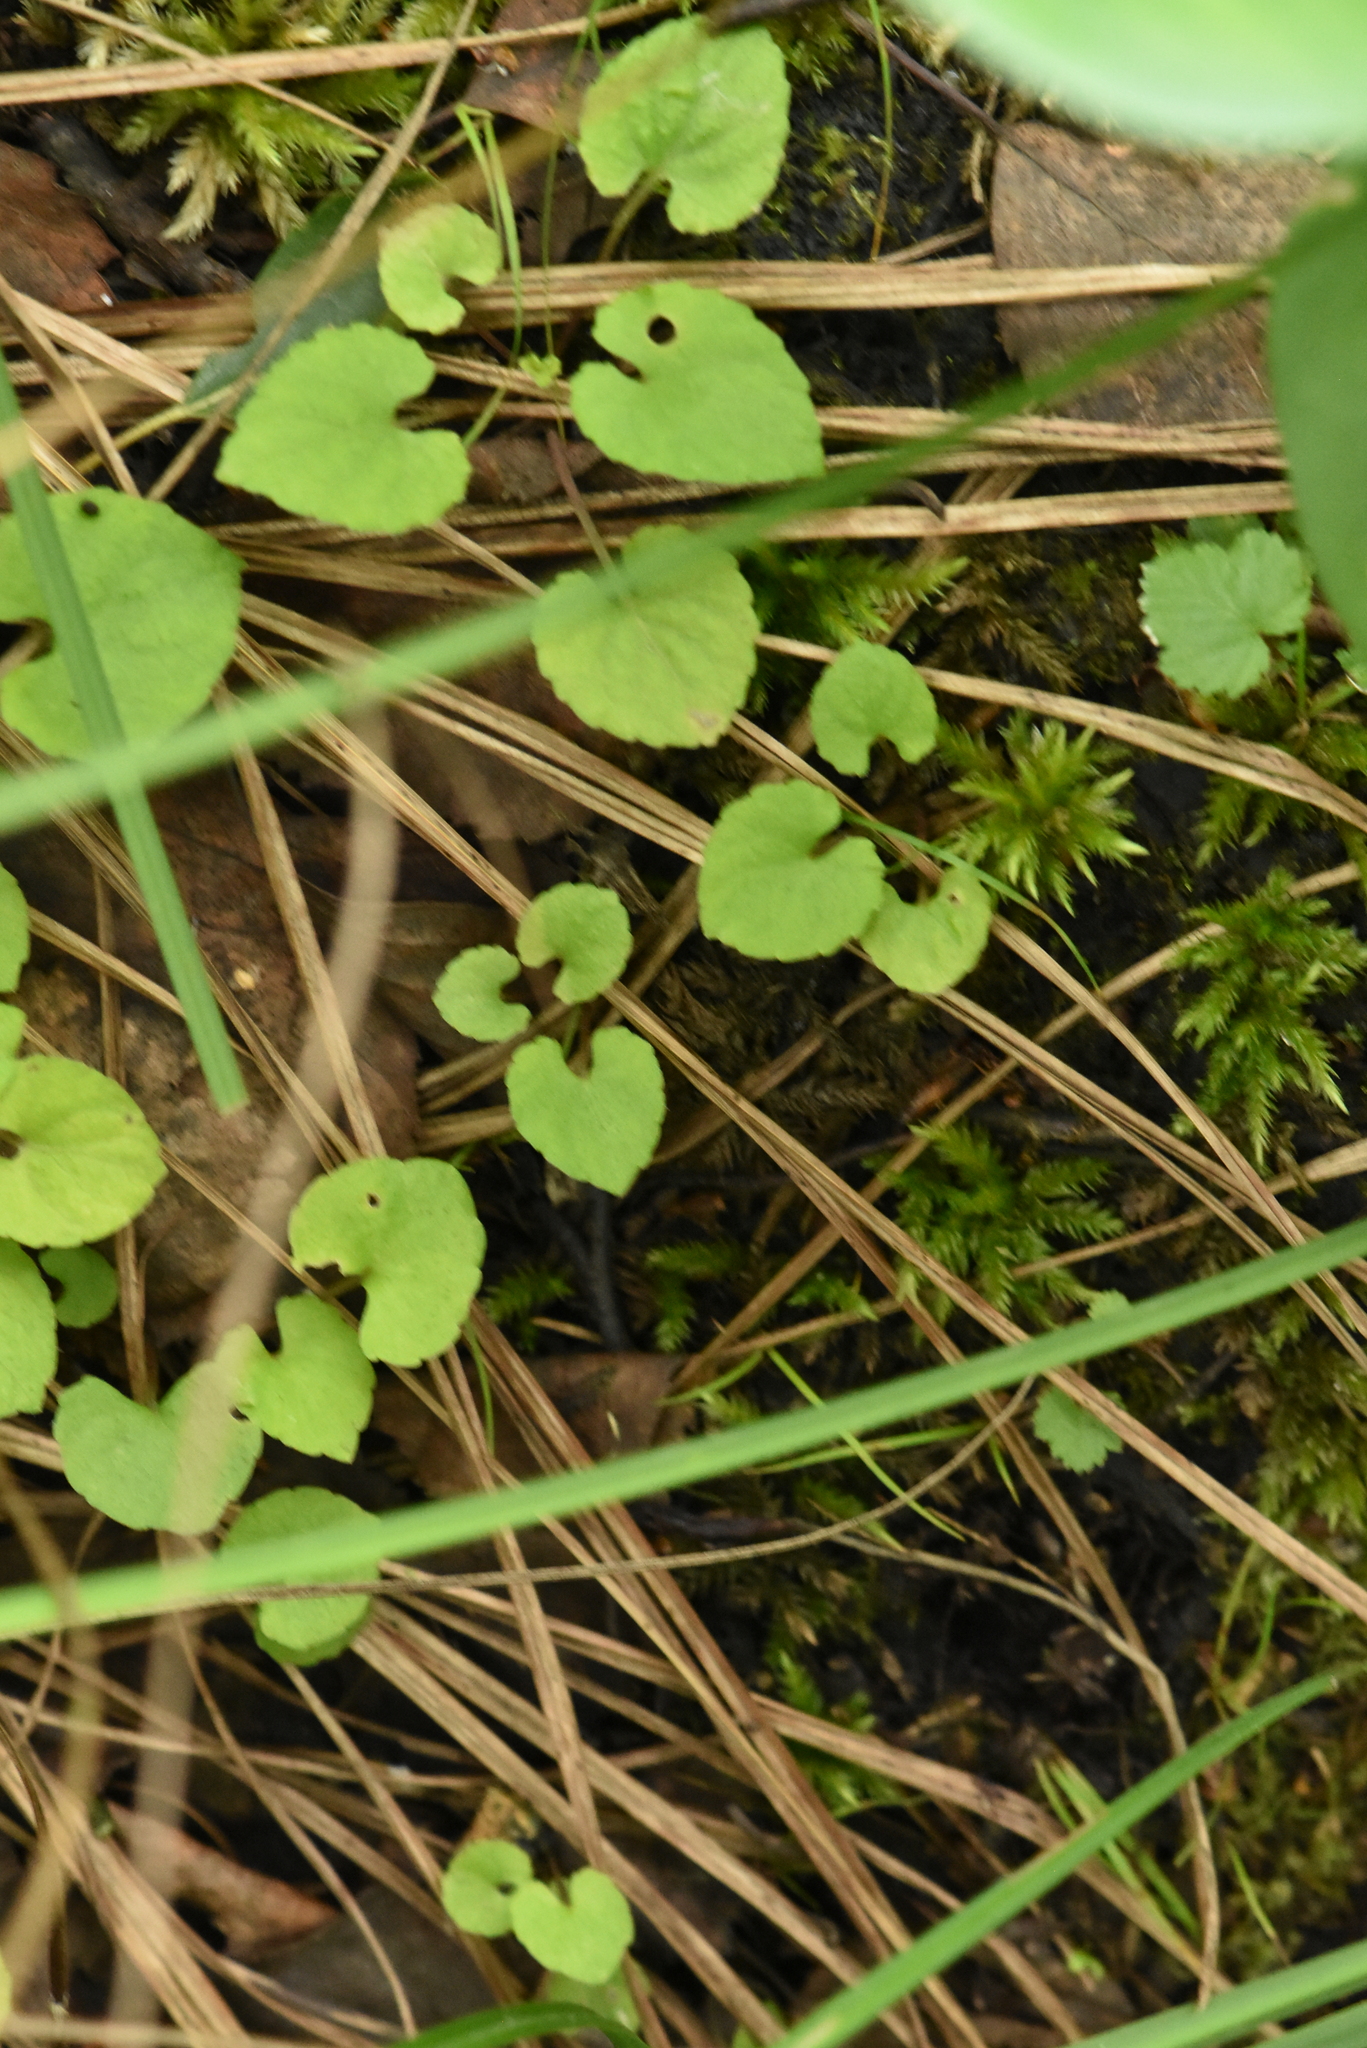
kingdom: Plantae
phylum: Tracheophyta
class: Magnoliopsida
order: Malpighiales
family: Violaceae
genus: Viola
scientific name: Viola selkirkii
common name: Selkirk's violet
